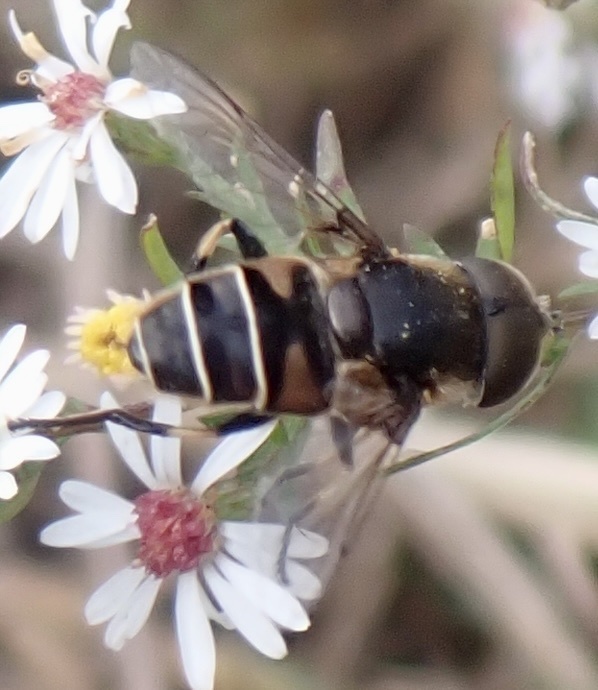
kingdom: Animalia
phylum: Arthropoda
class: Insecta
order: Diptera
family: Syrphidae
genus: Eristalis
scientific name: Eristalis dimidiata
